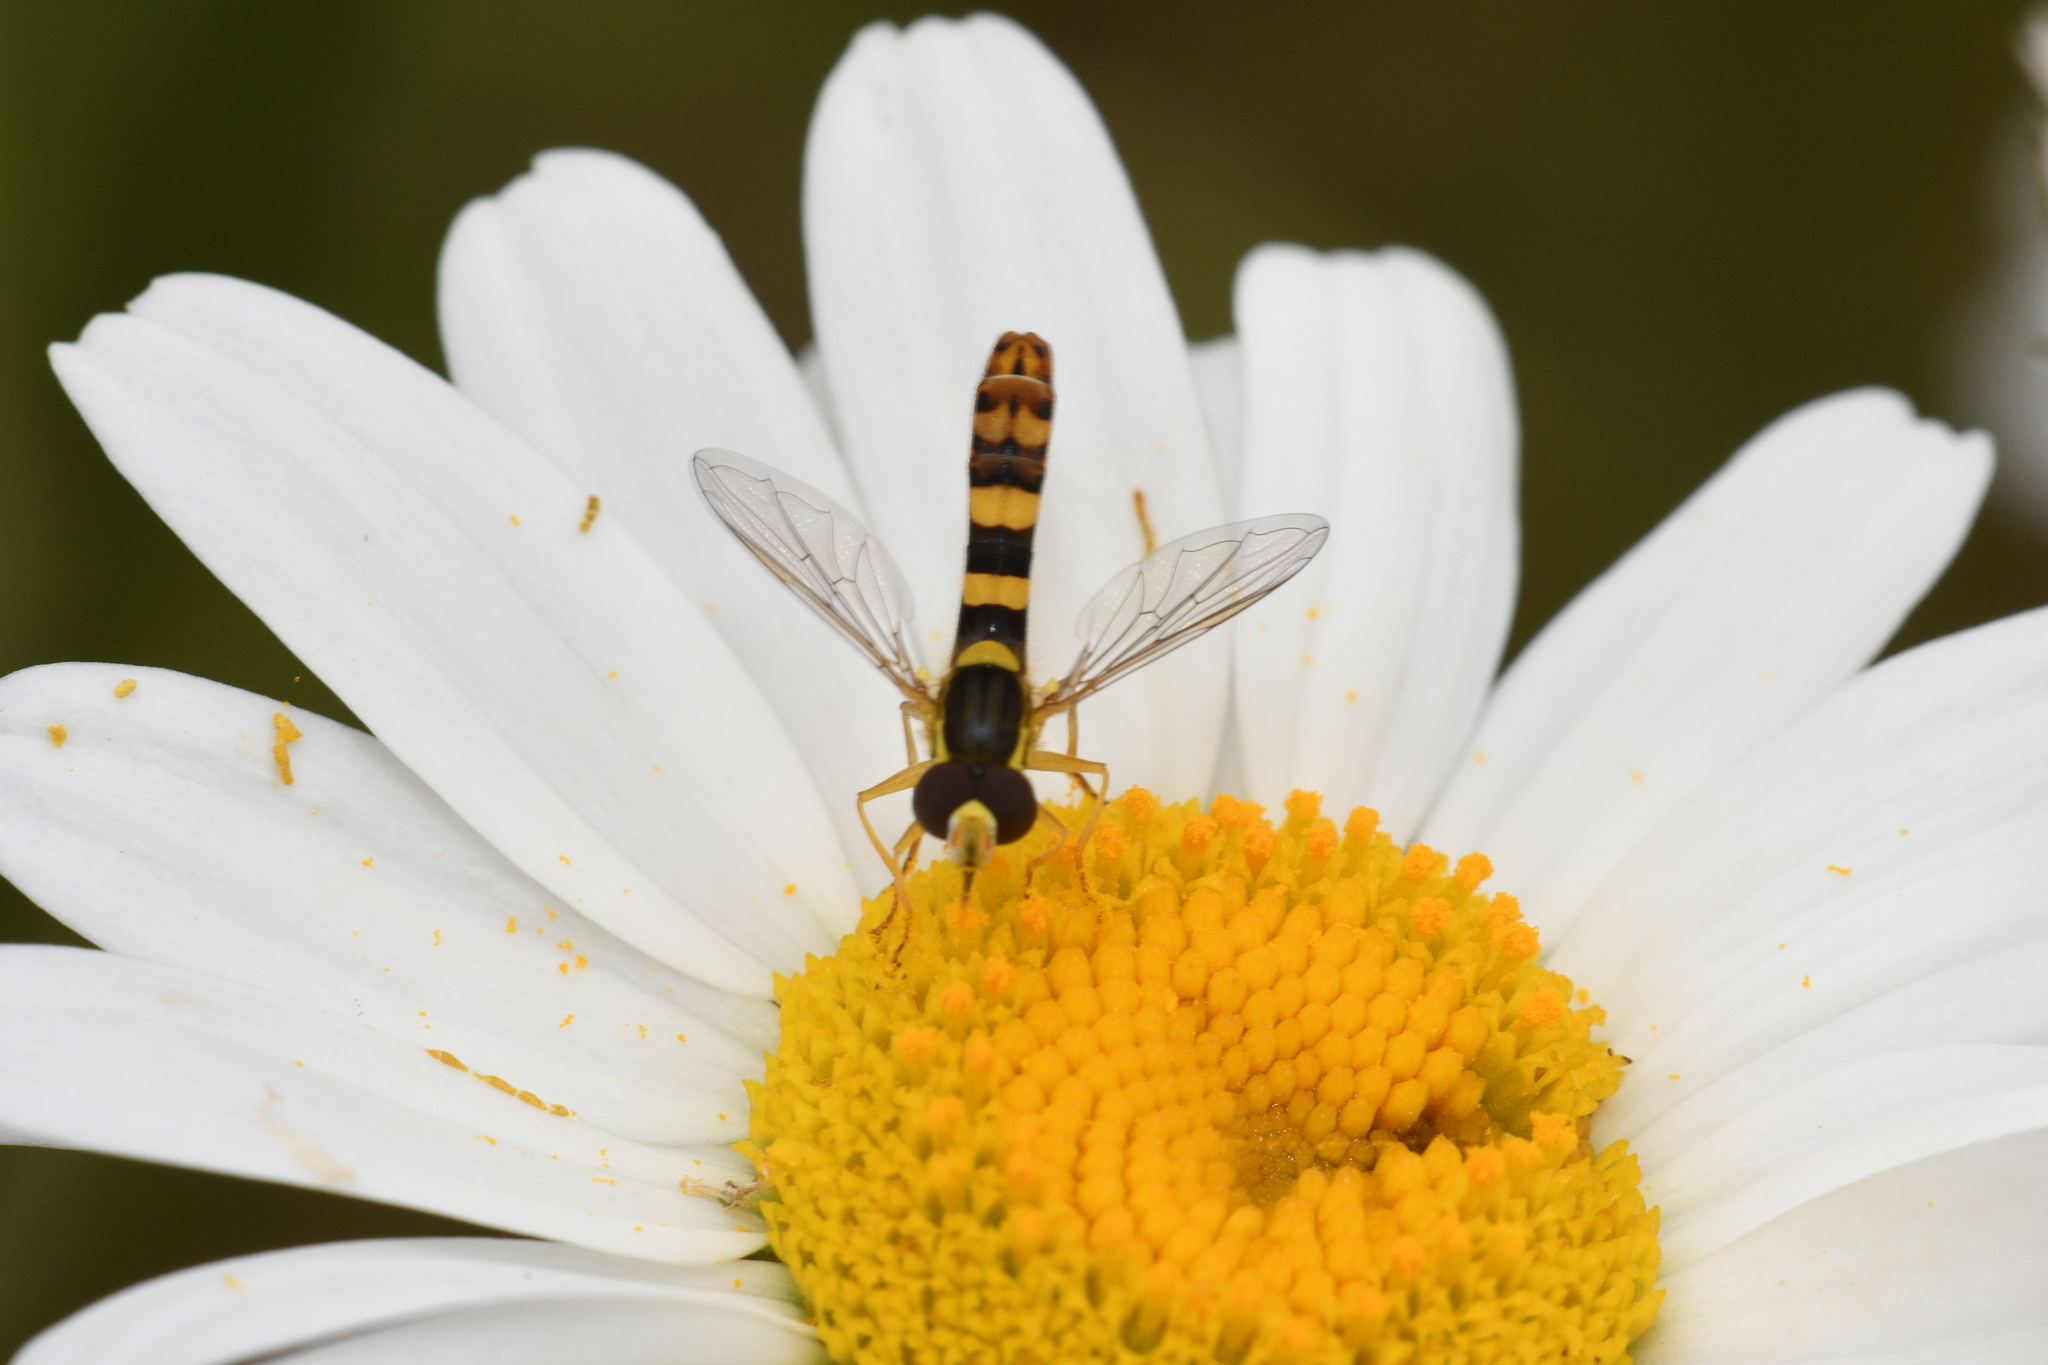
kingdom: Animalia
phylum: Arthropoda
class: Insecta
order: Diptera
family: Syrphidae
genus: Sphaerophoria
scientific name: Sphaerophoria scripta
